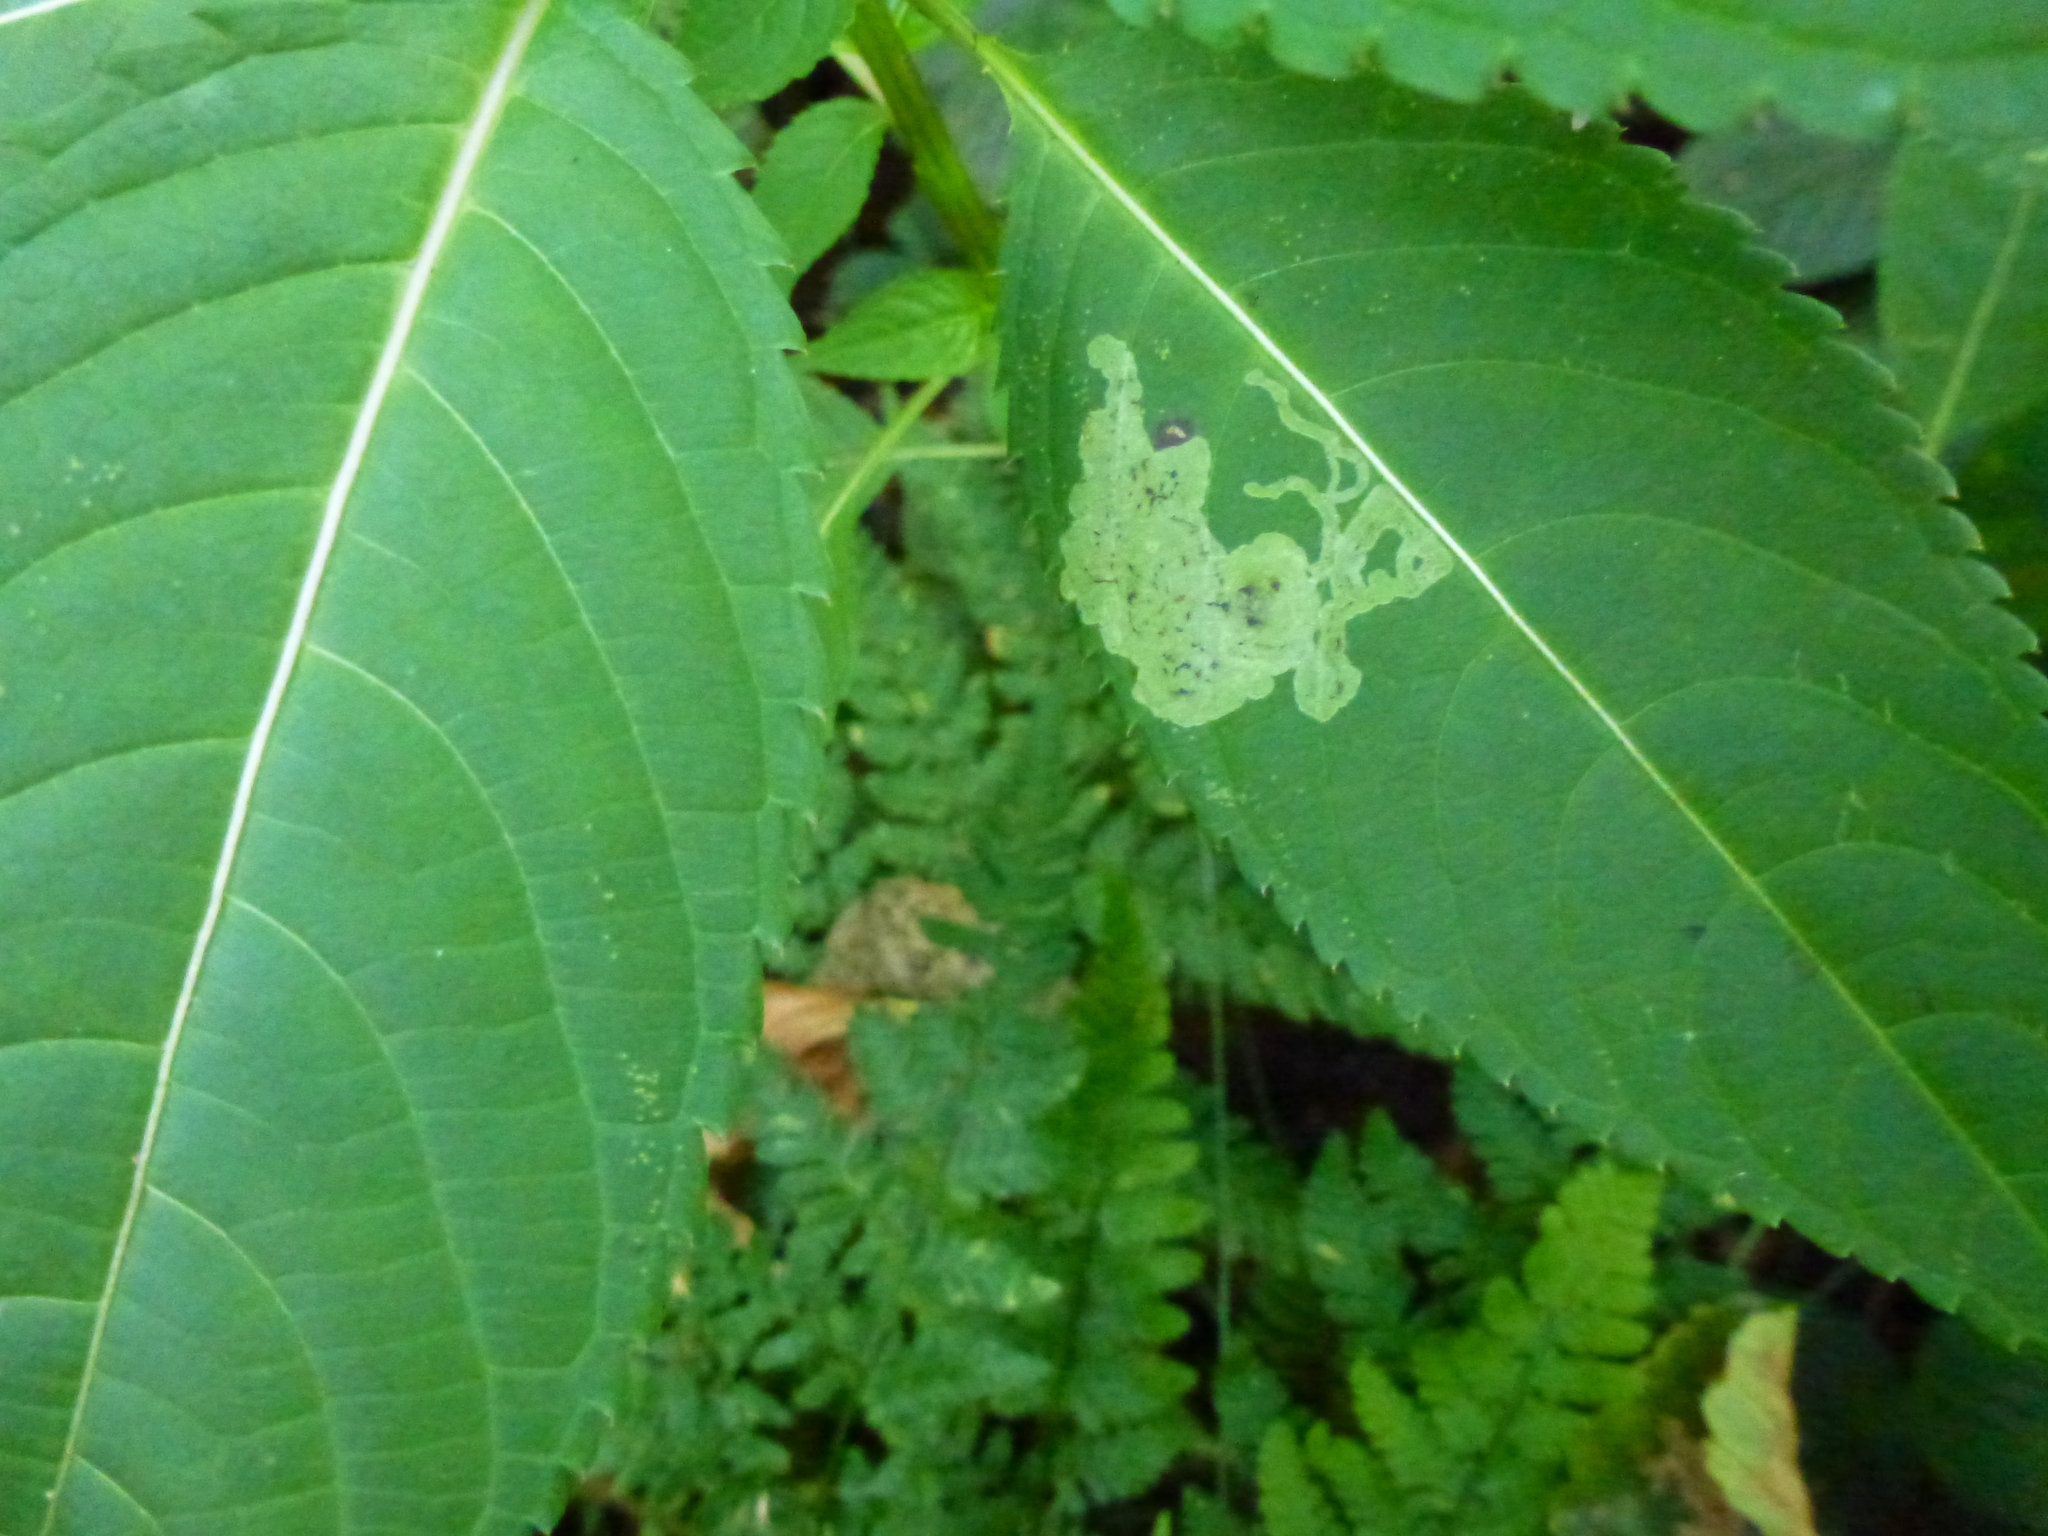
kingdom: Animalia
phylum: Arthropoda
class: Insecta
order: Diptera
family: Agromyzidae
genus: Phytoliriomyza
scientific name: Phytoliriomyza melampyga
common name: Jewelweed leaf-miner fly
